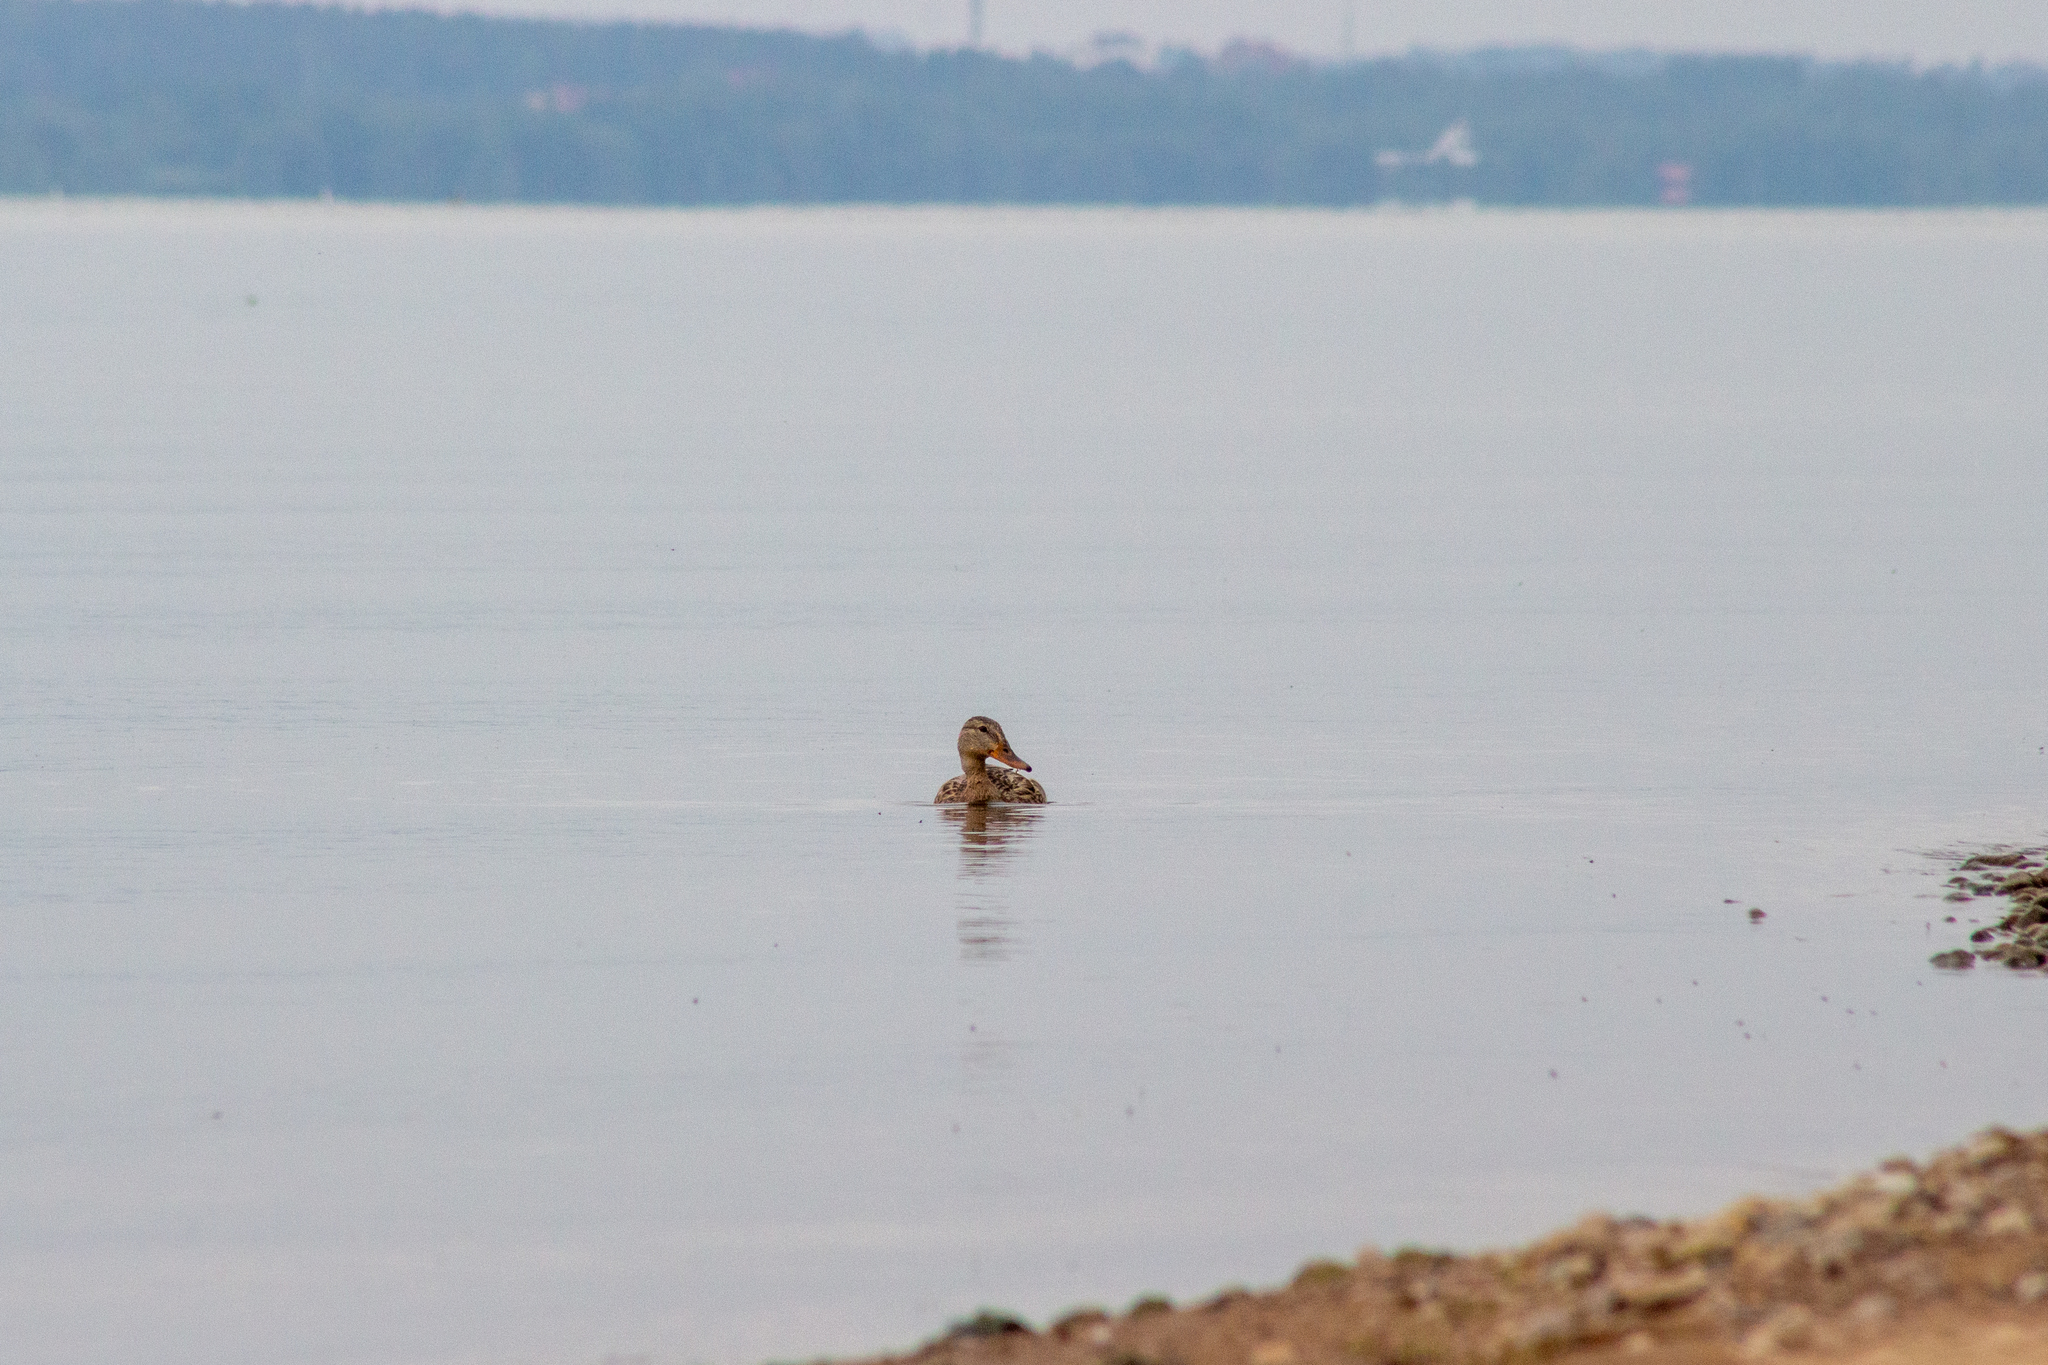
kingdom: Animalia
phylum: Chordata
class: Aves
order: Anseriformes
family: Anatidae
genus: Anas
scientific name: Anas platyrhynchos
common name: Mallard
